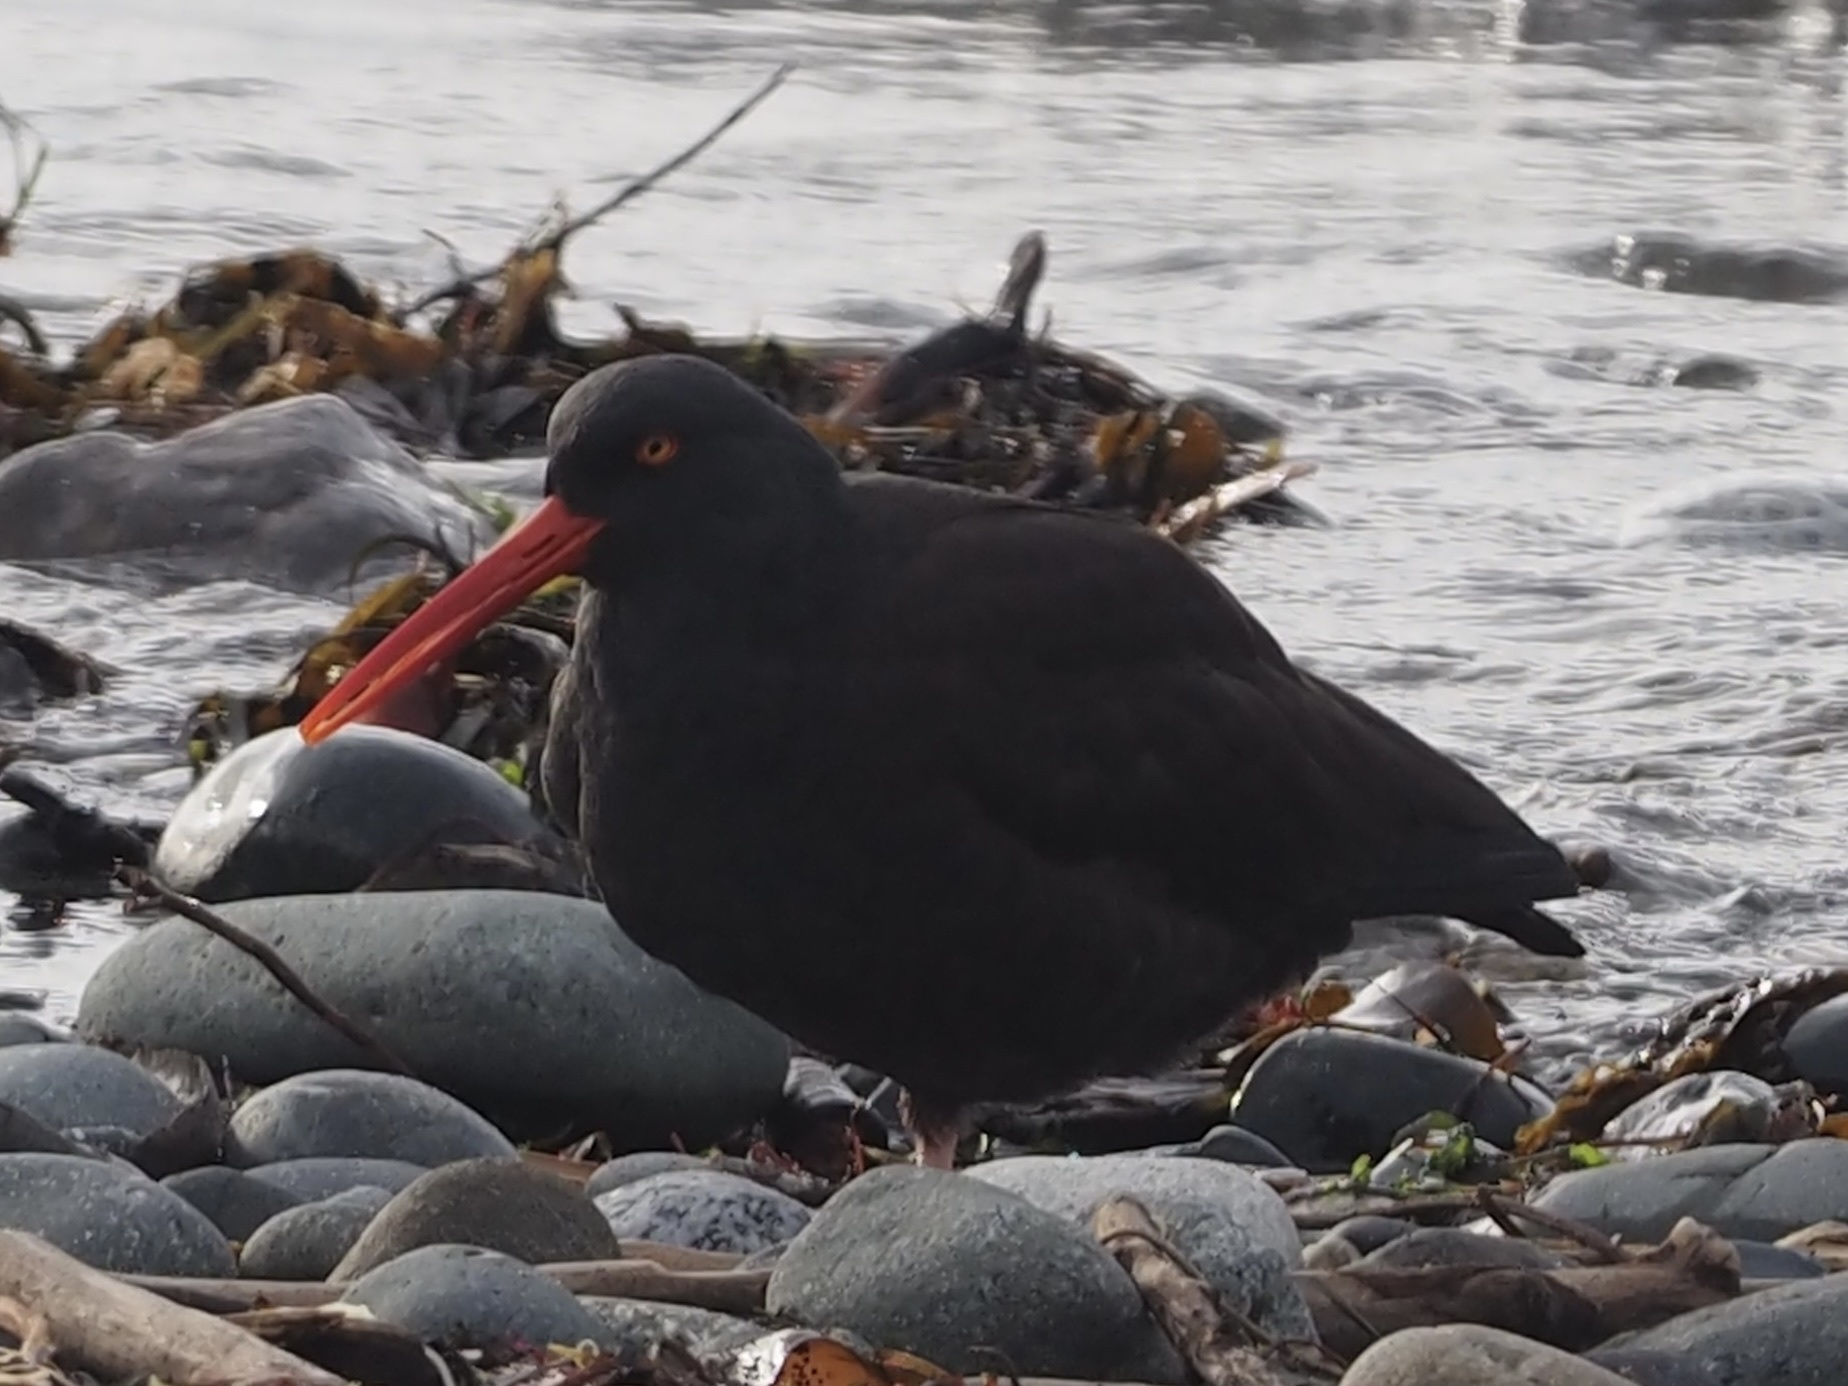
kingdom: Animalia
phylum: Chordata
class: Aves
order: Charadriiformes
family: Haematopodidae
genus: Haematopus
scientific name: Haematopus bachmani
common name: Black oystercatcher
